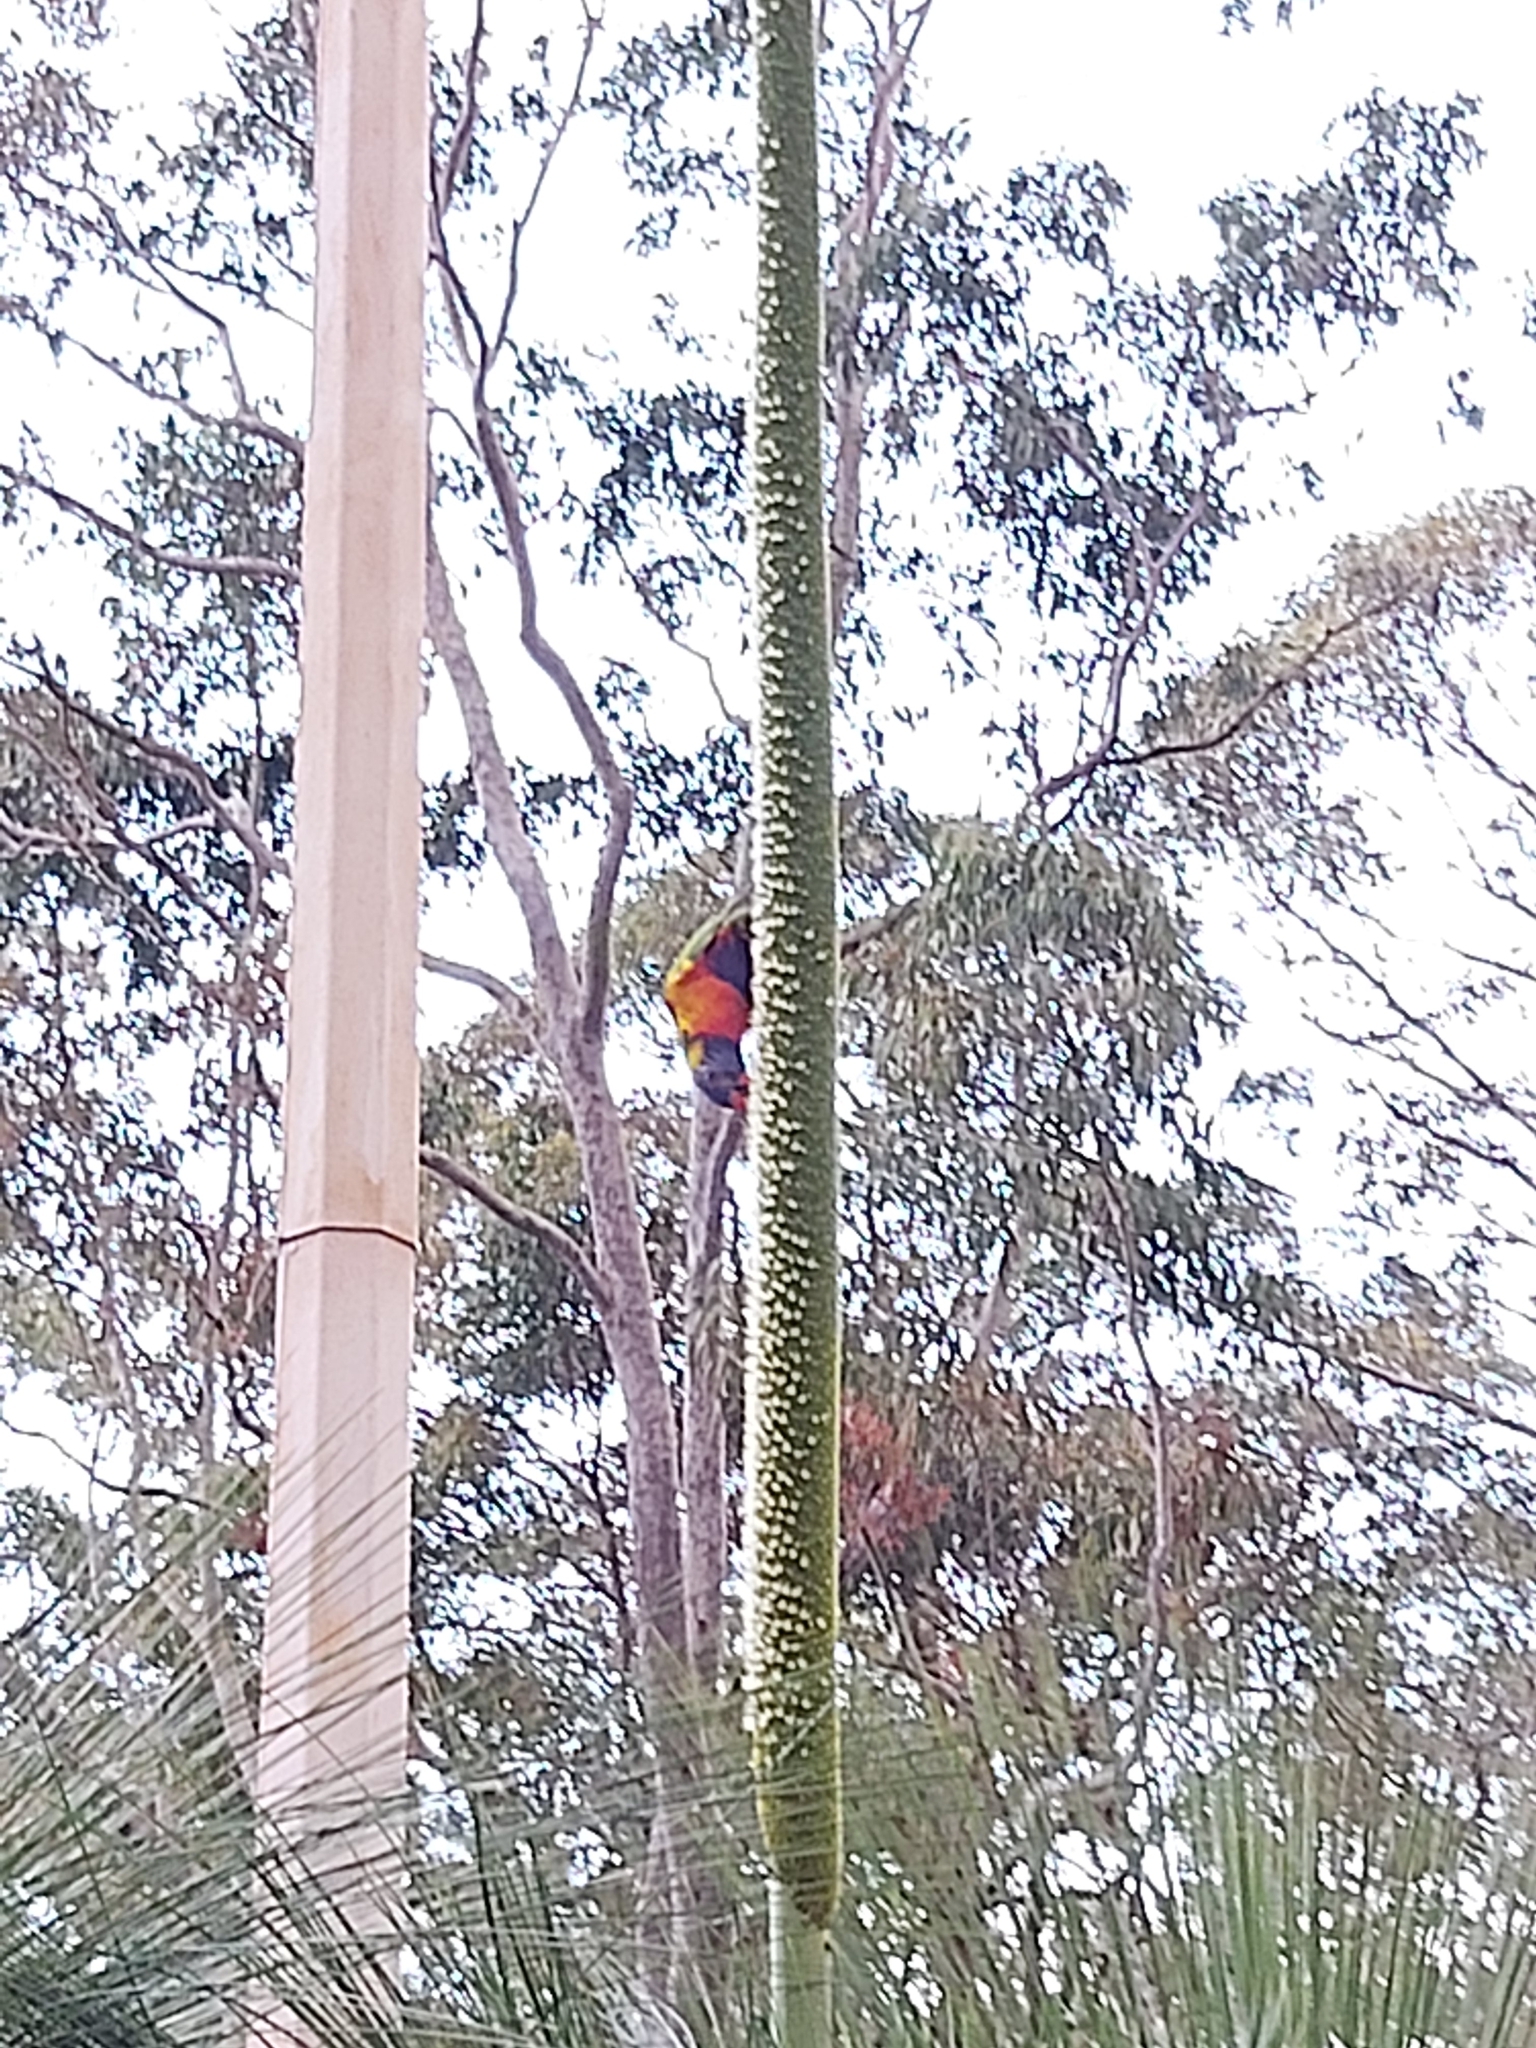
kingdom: Animalia
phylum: Chordata
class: Aves
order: Psittaciformes
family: Psittacidae
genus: Trichoglossus
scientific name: Trichoglossus haematodus
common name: Coconut lorikeet
